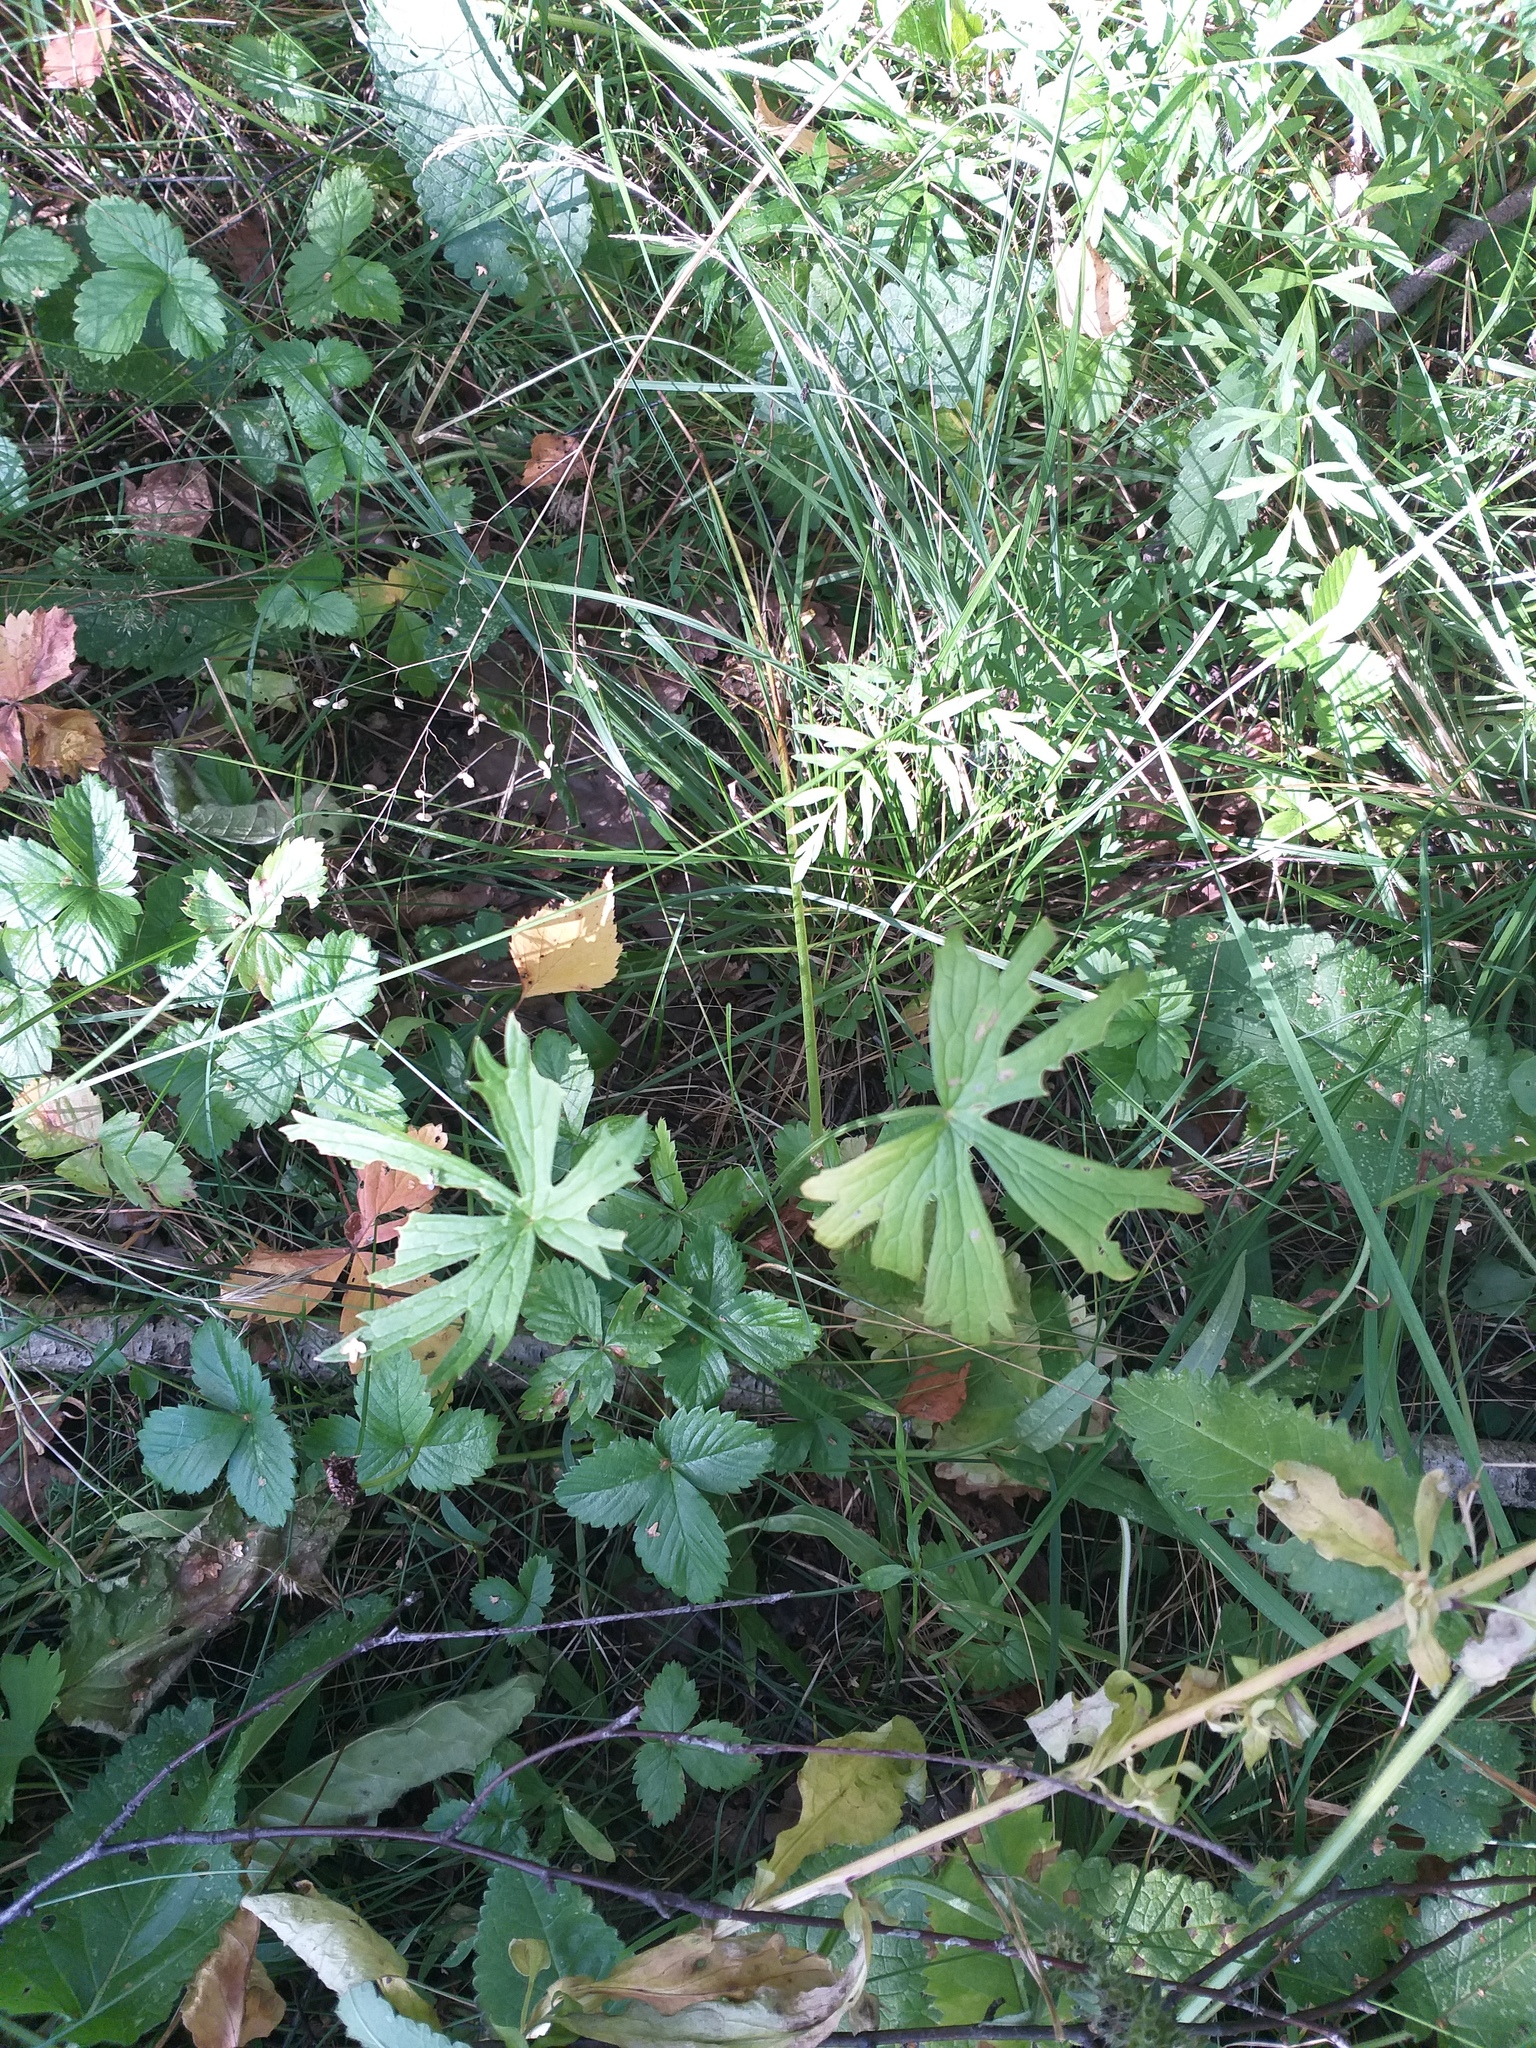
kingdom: Plantae
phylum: Tracheophyta
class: Magnoliopsida
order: Ranunculales
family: Ranunculaceae
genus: Ranunculus
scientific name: Ranunculus acris
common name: Meadow buttercup
